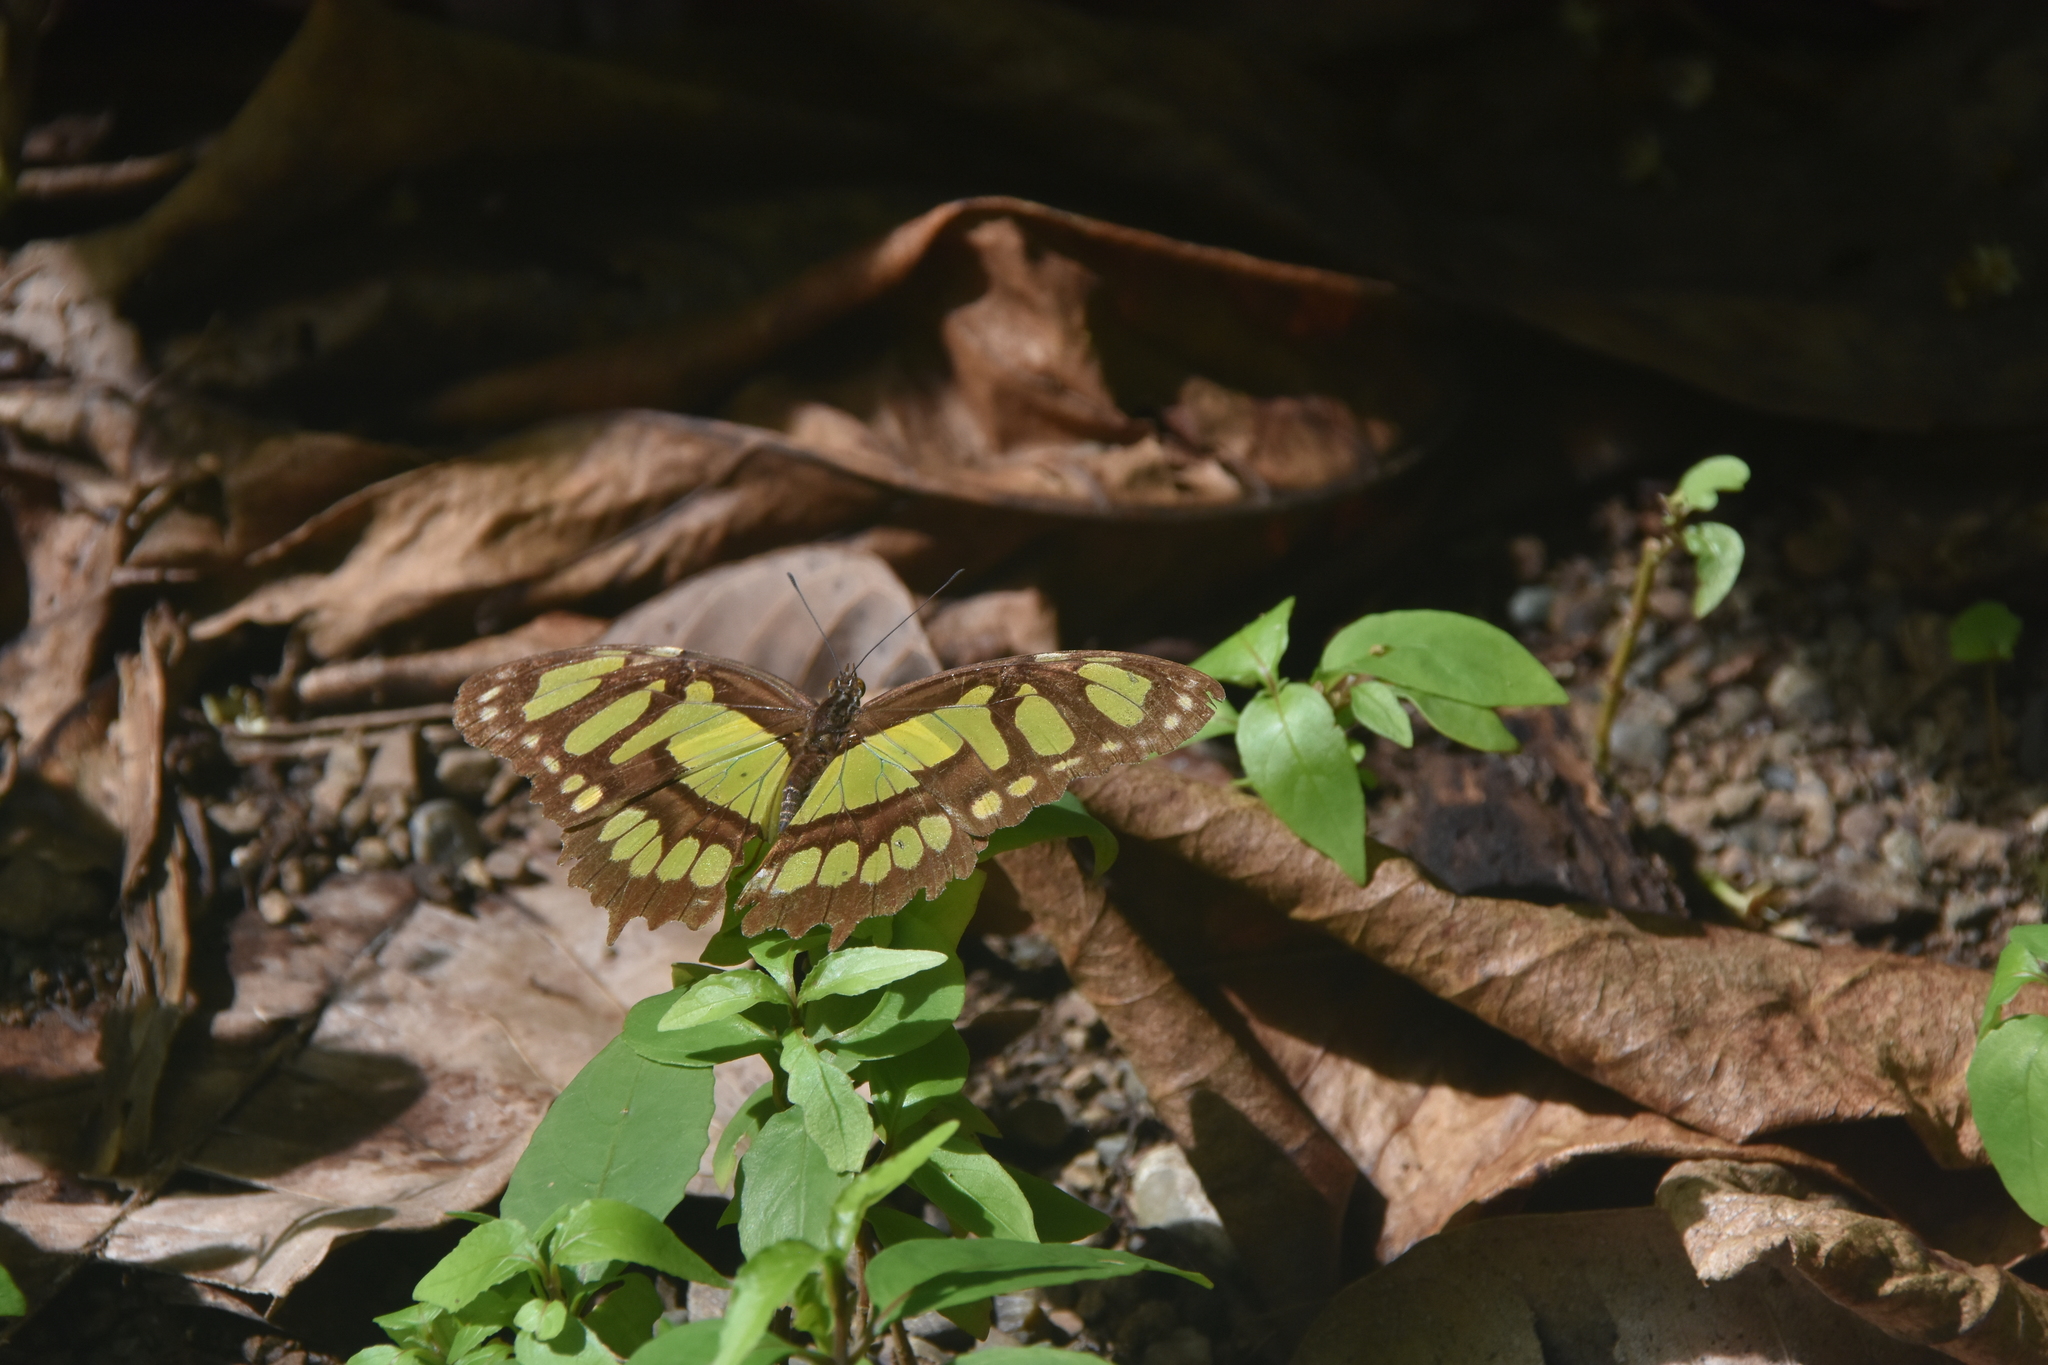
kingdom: Animalia
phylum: Arthropoda
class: Insecta
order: Lepidoptera
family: Nymphalidae
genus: Siproeta
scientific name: Siproeta stelenes
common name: Malachite
